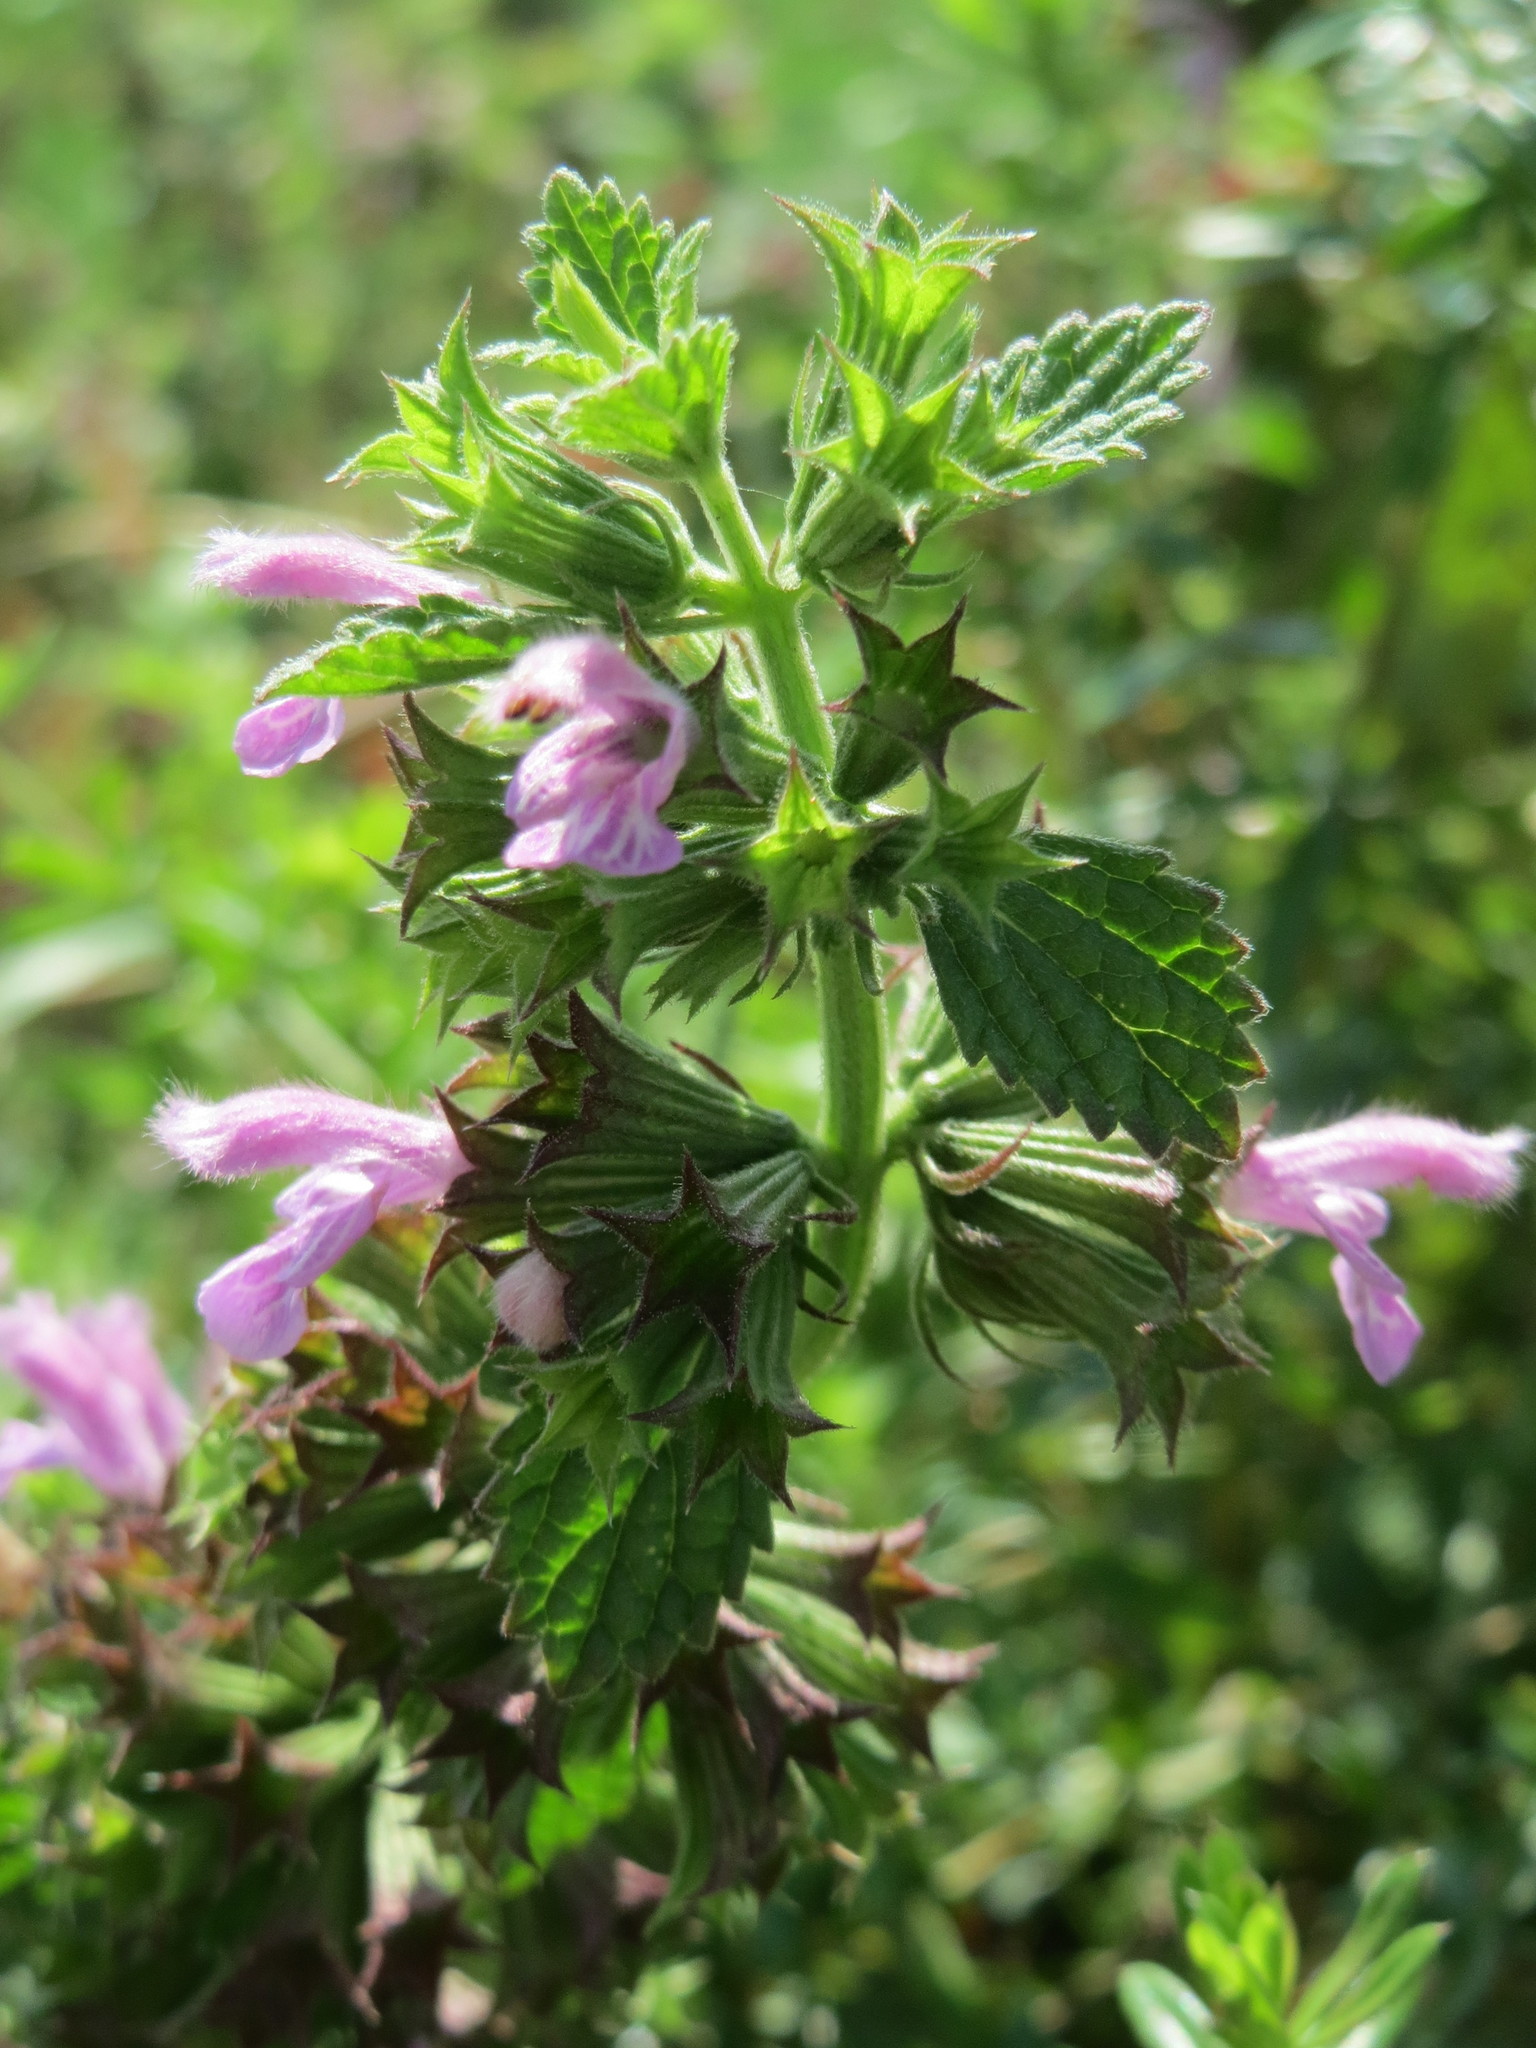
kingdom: Plantae
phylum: Tracheophyta
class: Magnoliopsida
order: Lamiales
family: Lamiaceae
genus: Ballota
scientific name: Ballota nigra
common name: Black horehound
